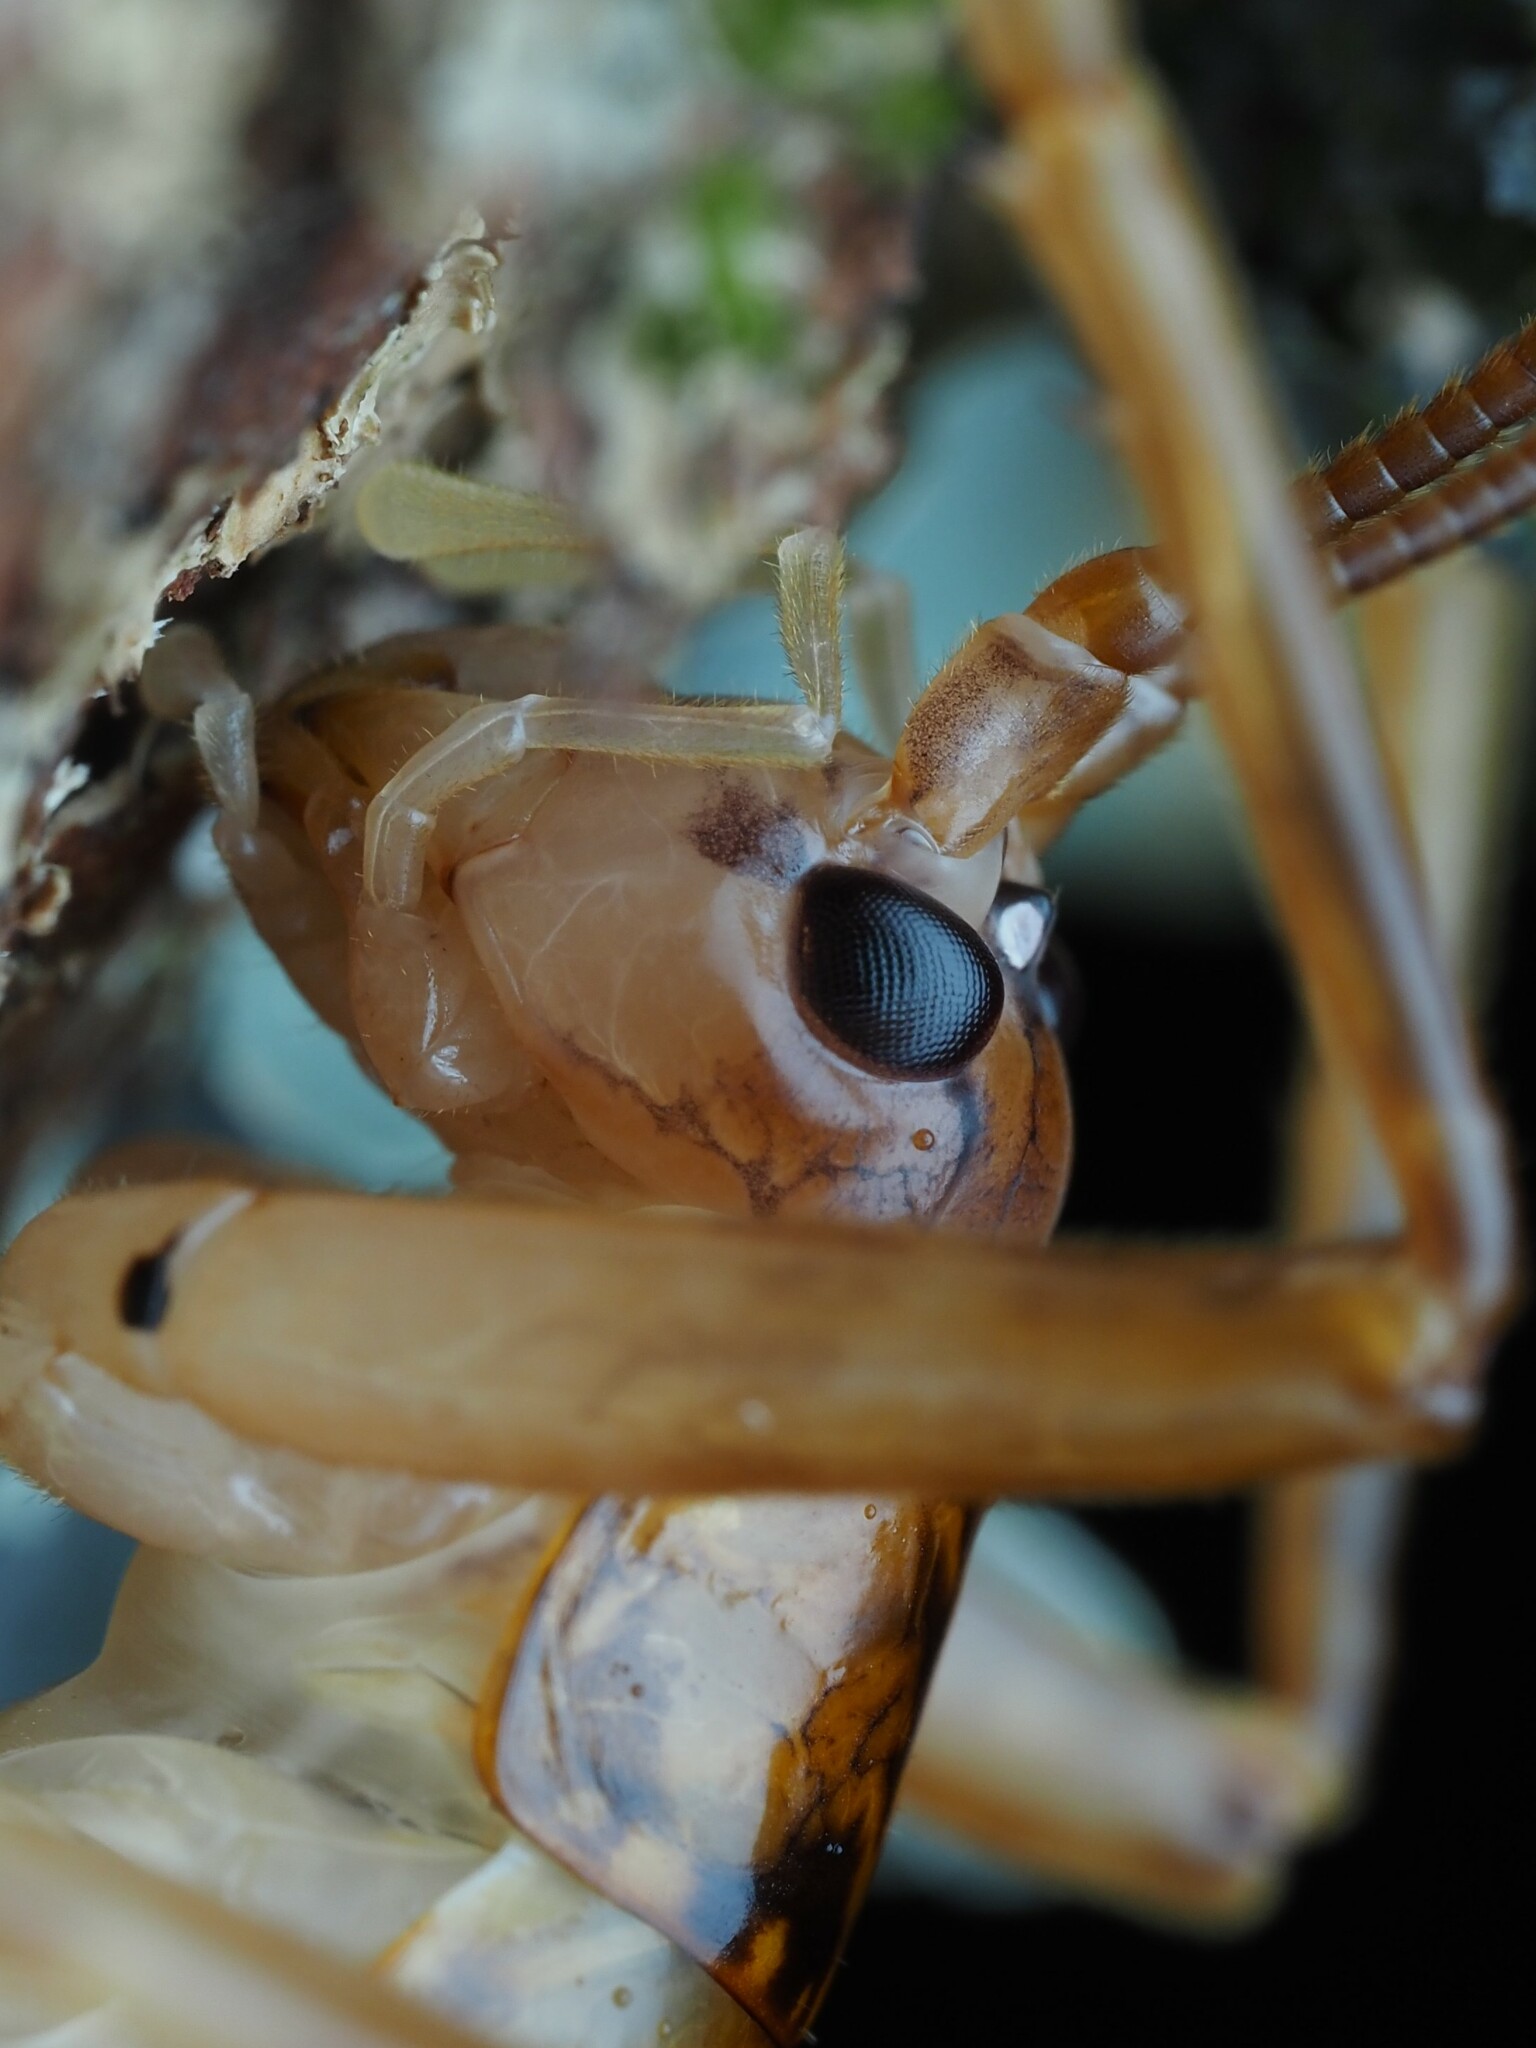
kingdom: Animalia
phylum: Arthropoda
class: Insecta
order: Orthoptera
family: Rhaphidophoridae
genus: Talitropsis
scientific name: Talitropsis sedilloti
